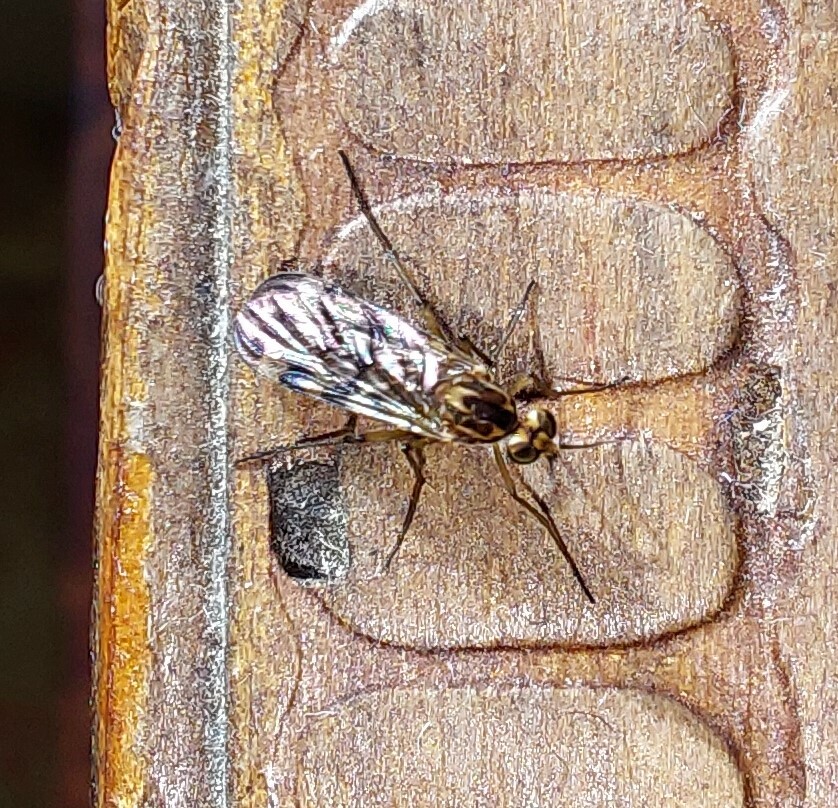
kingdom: Animalia
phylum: Arthropoda
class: Insecta
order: Diptera
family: Anisopodidae
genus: Sylvicola
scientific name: Sylvicola dubius
